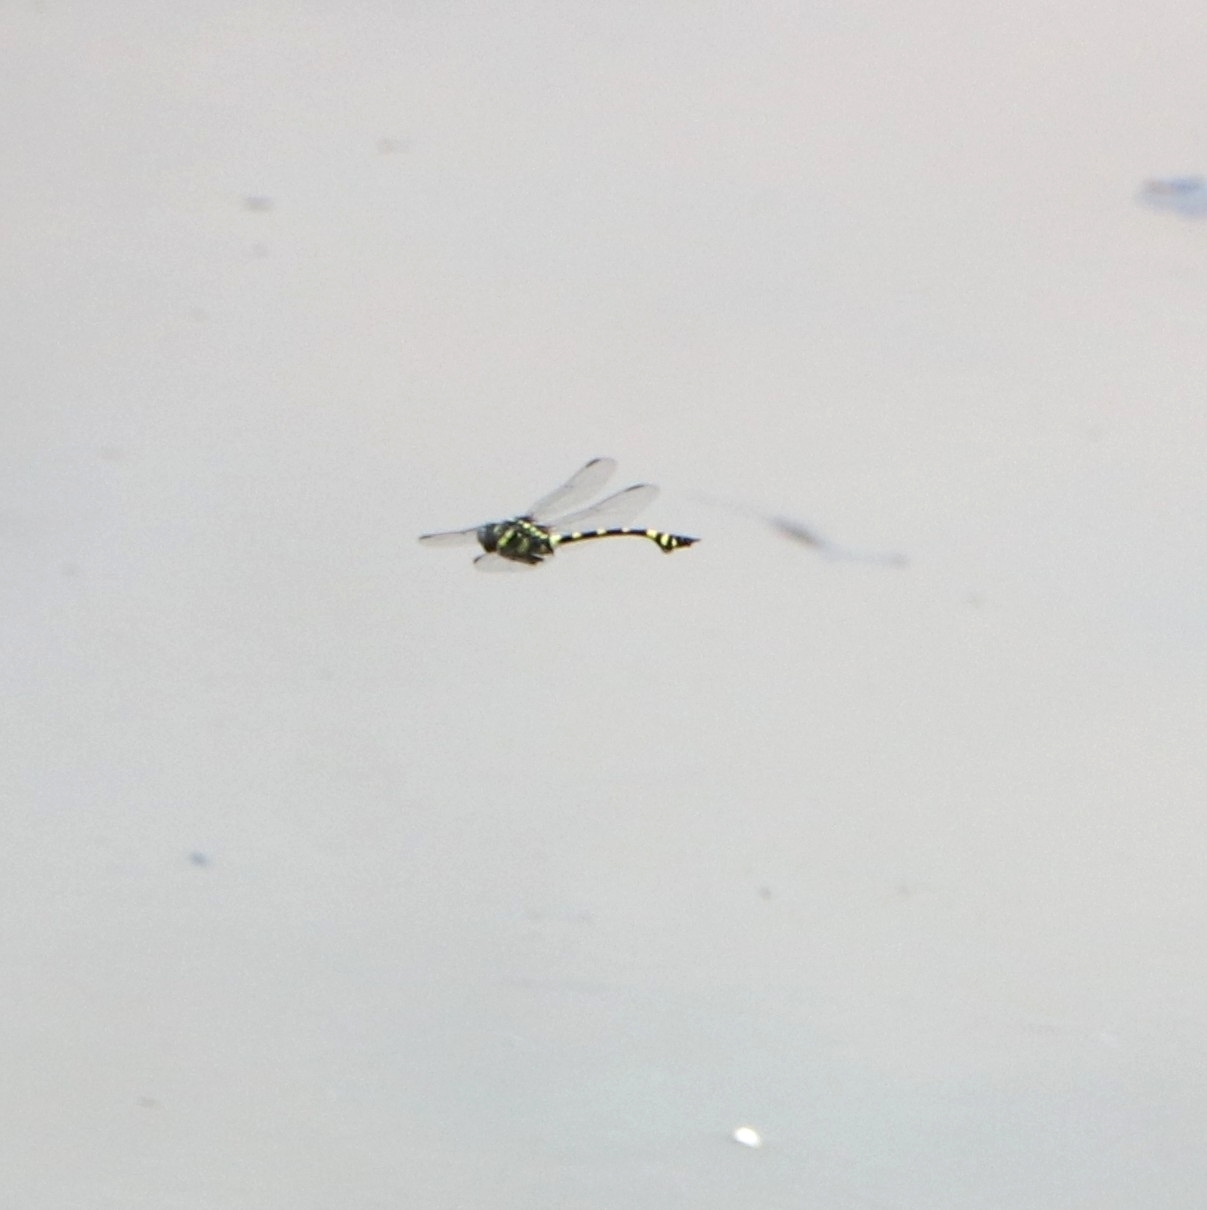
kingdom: Animalia
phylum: Arthropoda
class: Insecta
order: Odonata
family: Gomphidae
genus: Ictinogomphus
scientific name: Ictinogomphus rapax
